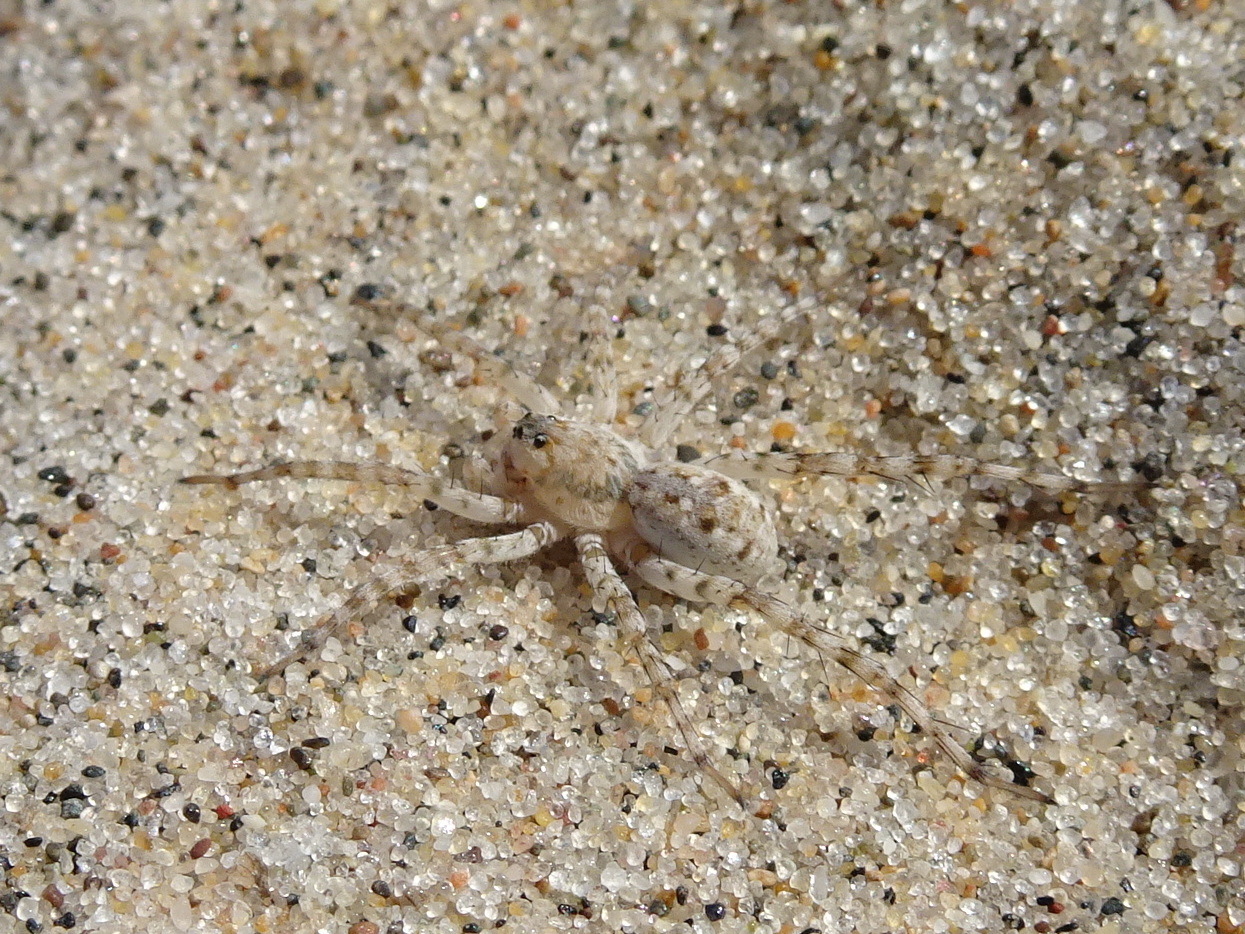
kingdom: Animalia
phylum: Arthropoda
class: Arachnida
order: Araneae
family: Lycosidae
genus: Arctosa
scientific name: Arctosa littoralis
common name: Wolf spiders
